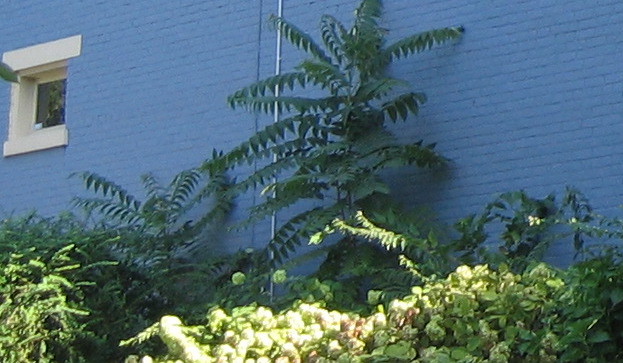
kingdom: Plantae
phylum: Tracheophyta
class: Magnoliopsida
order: Sapindales
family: Simaroubaceae
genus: Ailanthus
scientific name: Ailanthus altissima
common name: Tree-of-heaven
